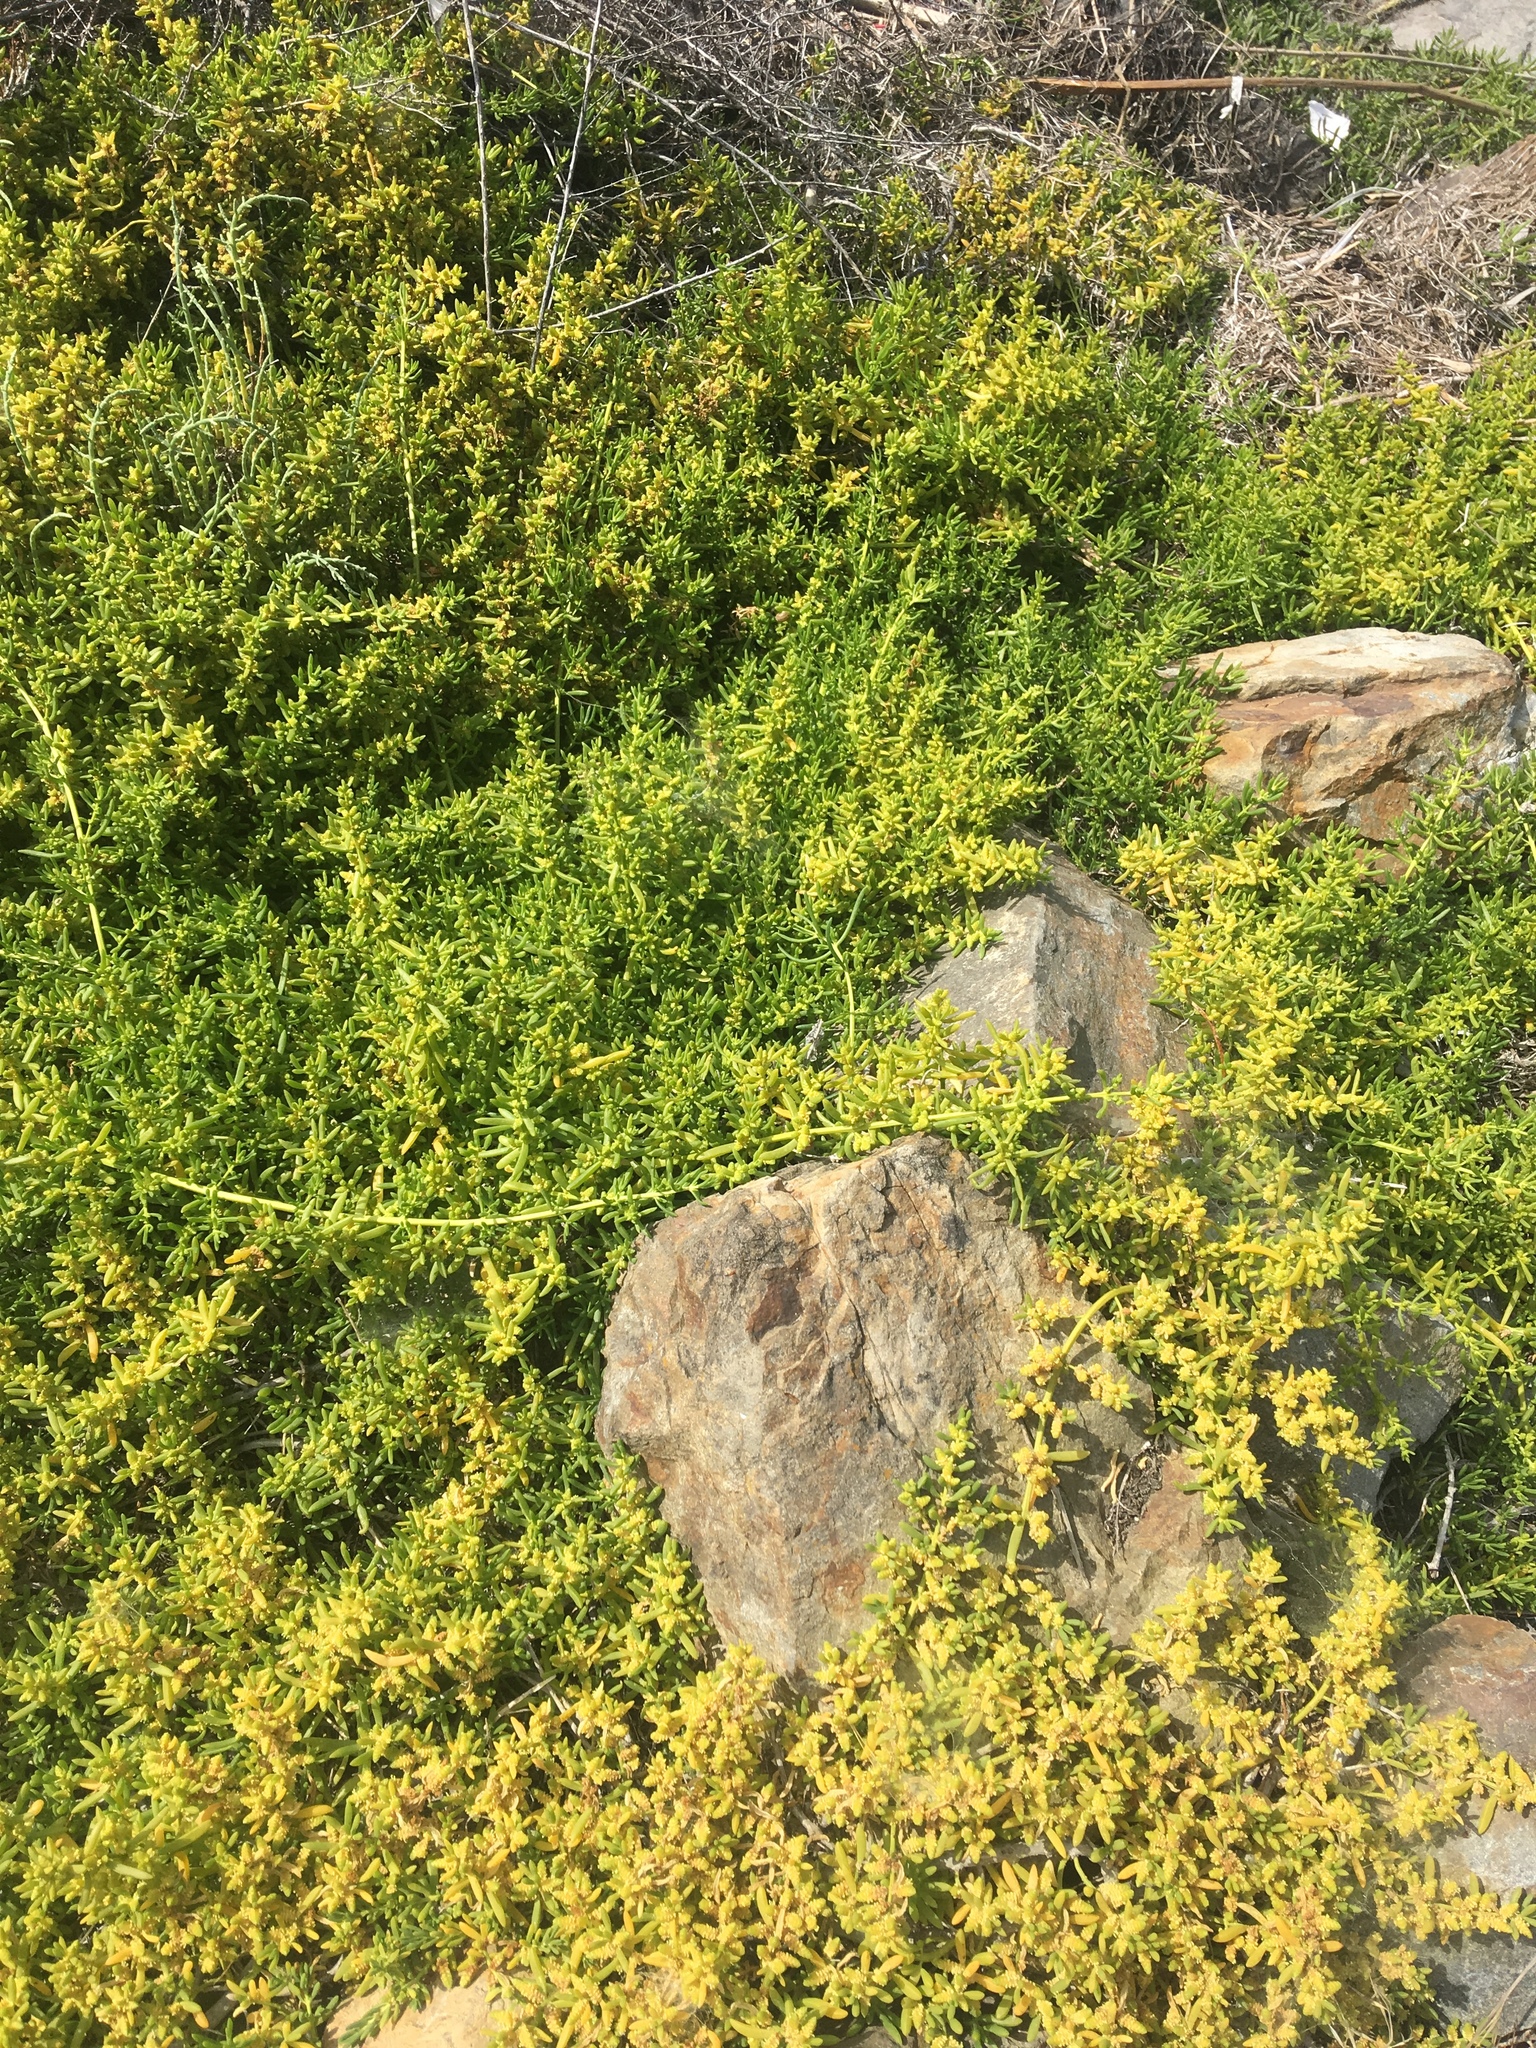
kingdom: Plantae
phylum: Tracheophyta
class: Magnoliopsida
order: Brassicales
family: Bataceae
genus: Batis
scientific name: Batis maritima
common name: Turtleweed
